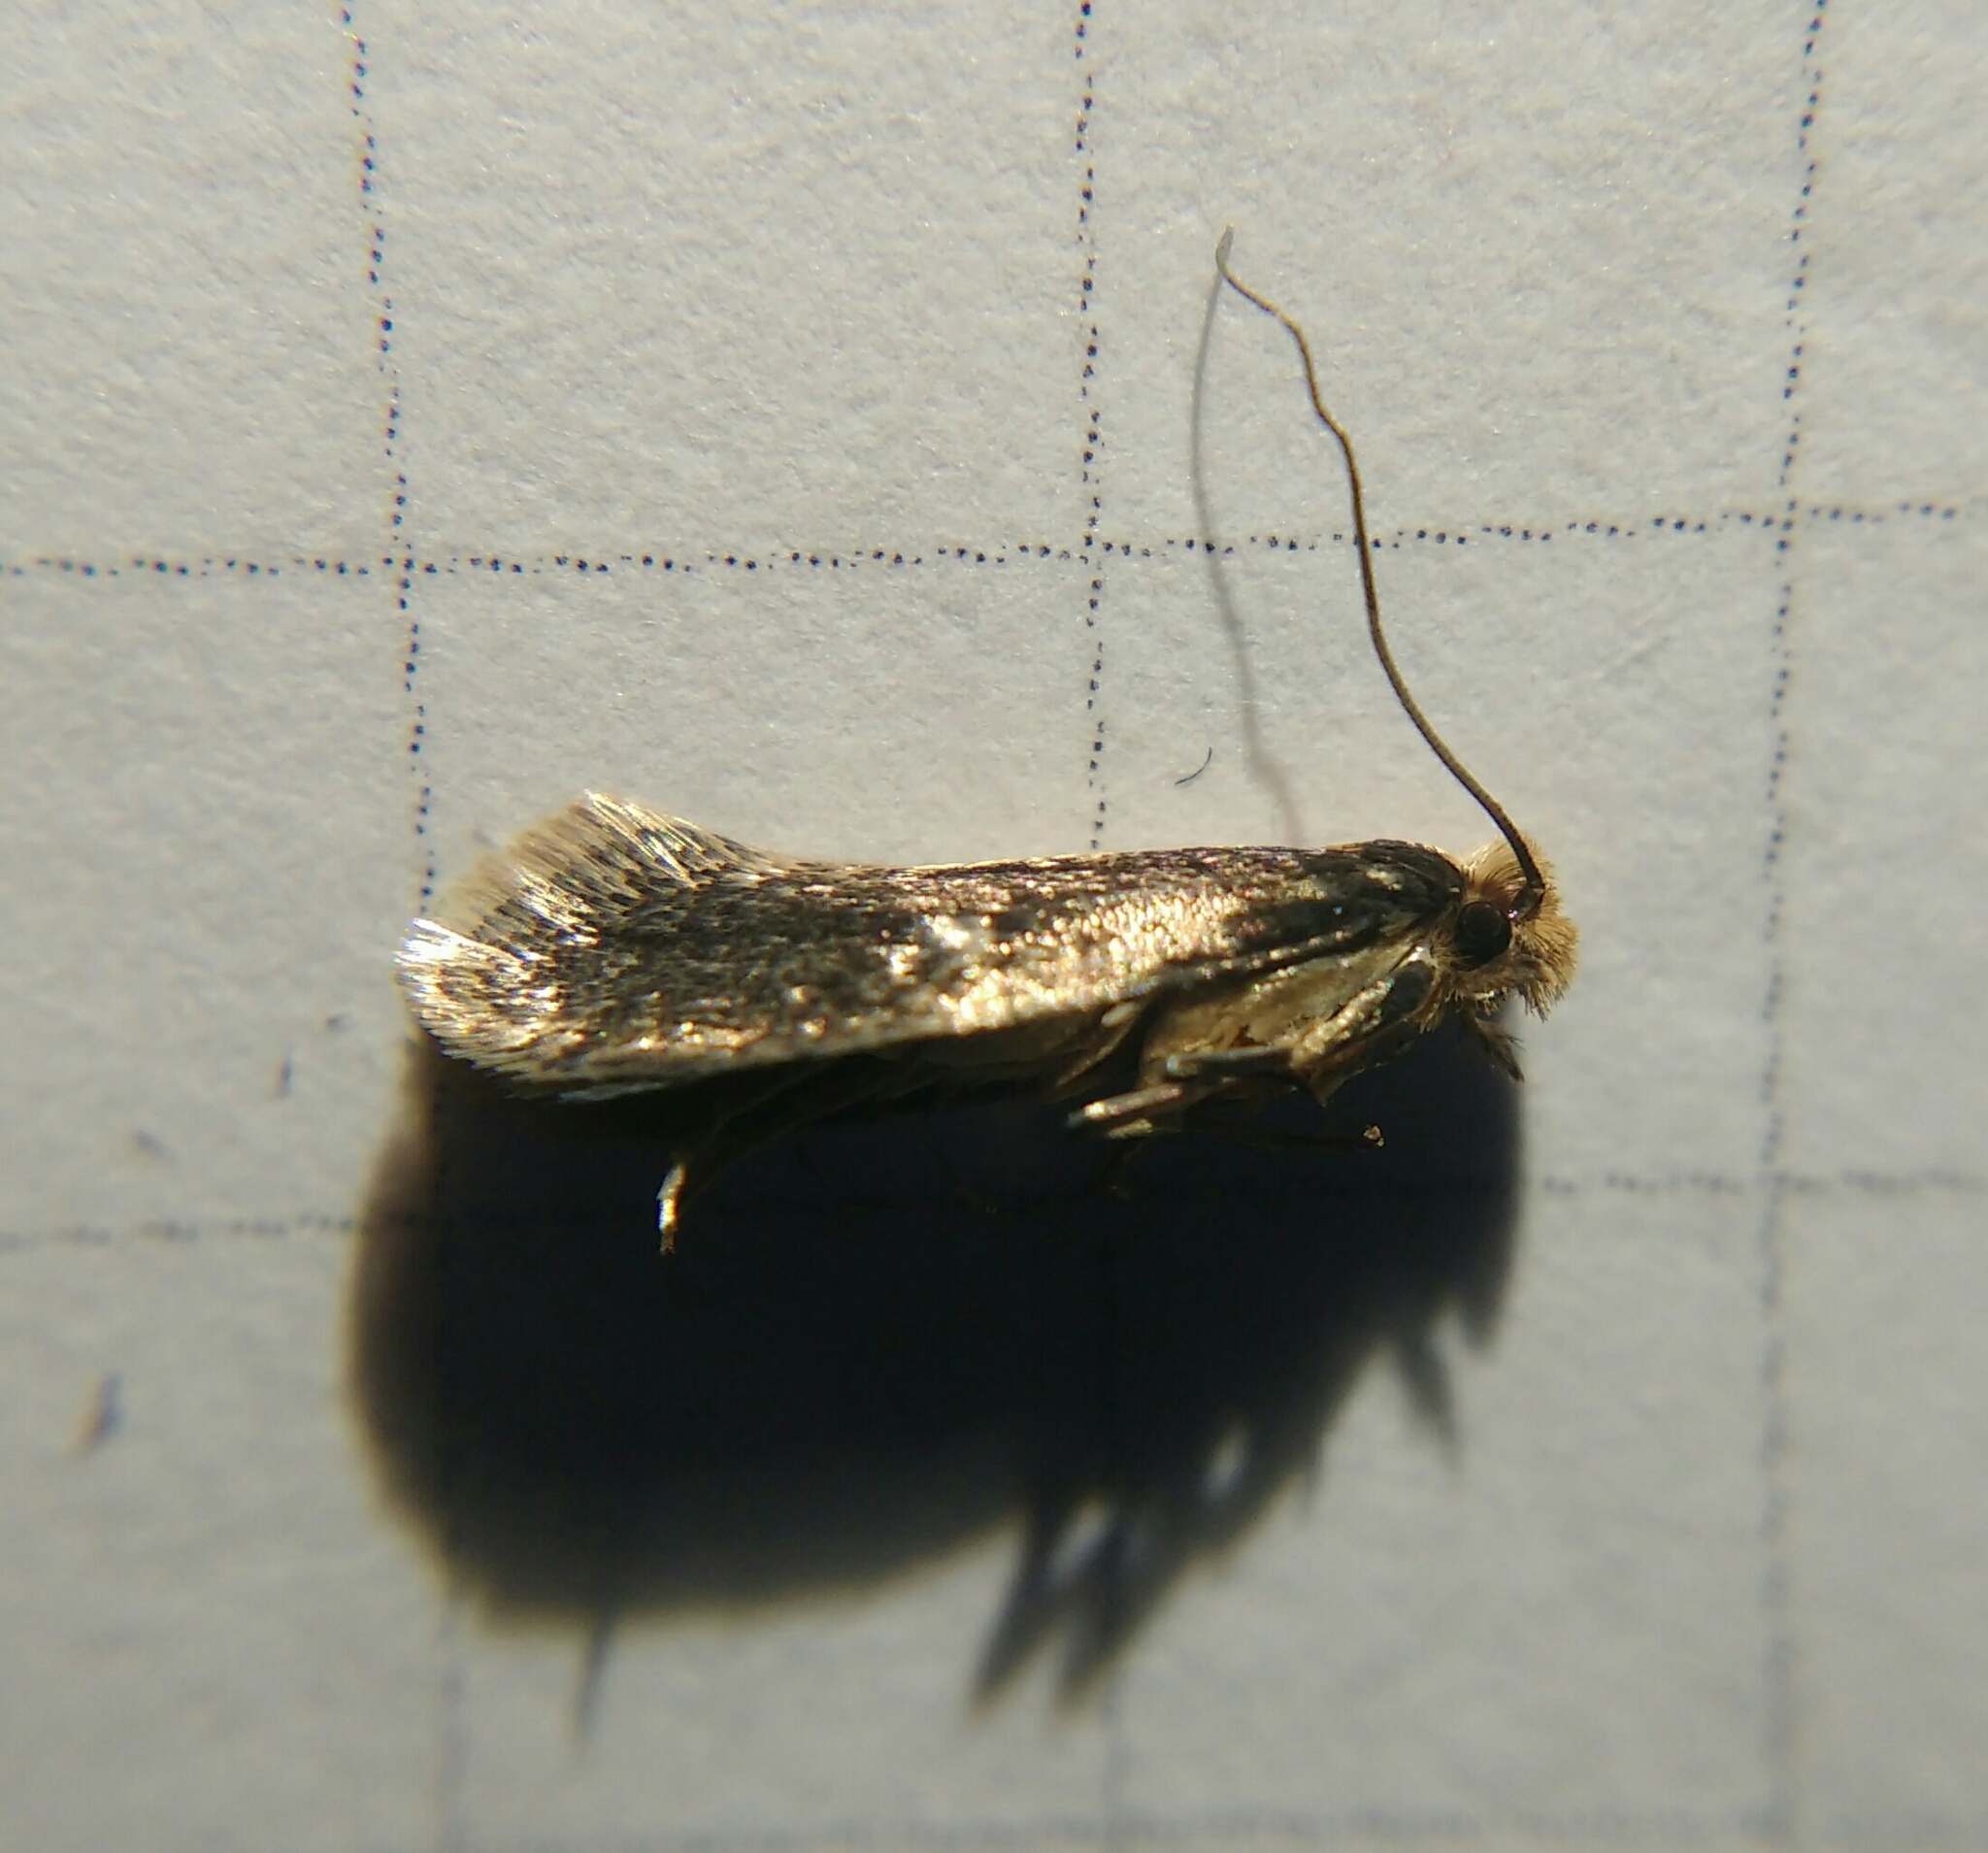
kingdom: Animalia
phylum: Arthropoda
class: Insecta
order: Lepidoptera
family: Tineidae
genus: Monopis
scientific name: Monopis crocicapitella
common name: Moth
